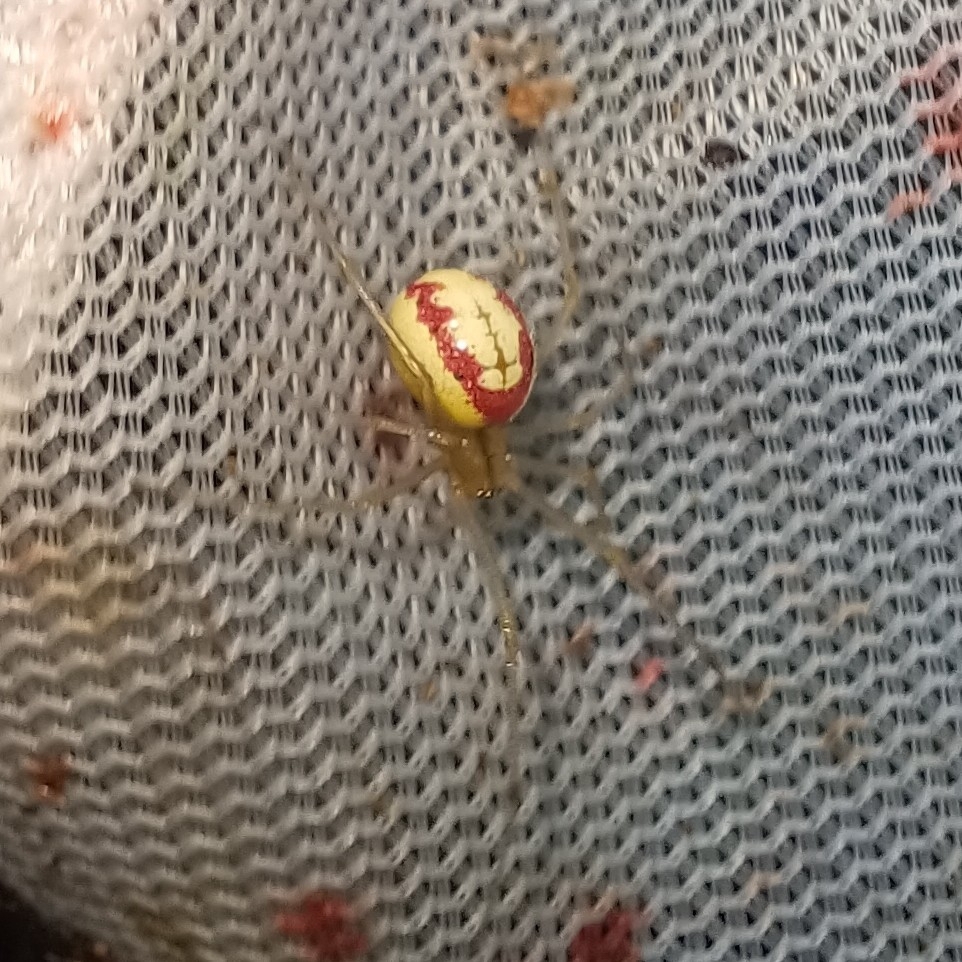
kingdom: Animalia
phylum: Arthropoda
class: Arachnida
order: Araneae
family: Theridiidae
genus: Enoplognatha
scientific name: Enoplognatha ovata
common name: Common candy-striped spider
